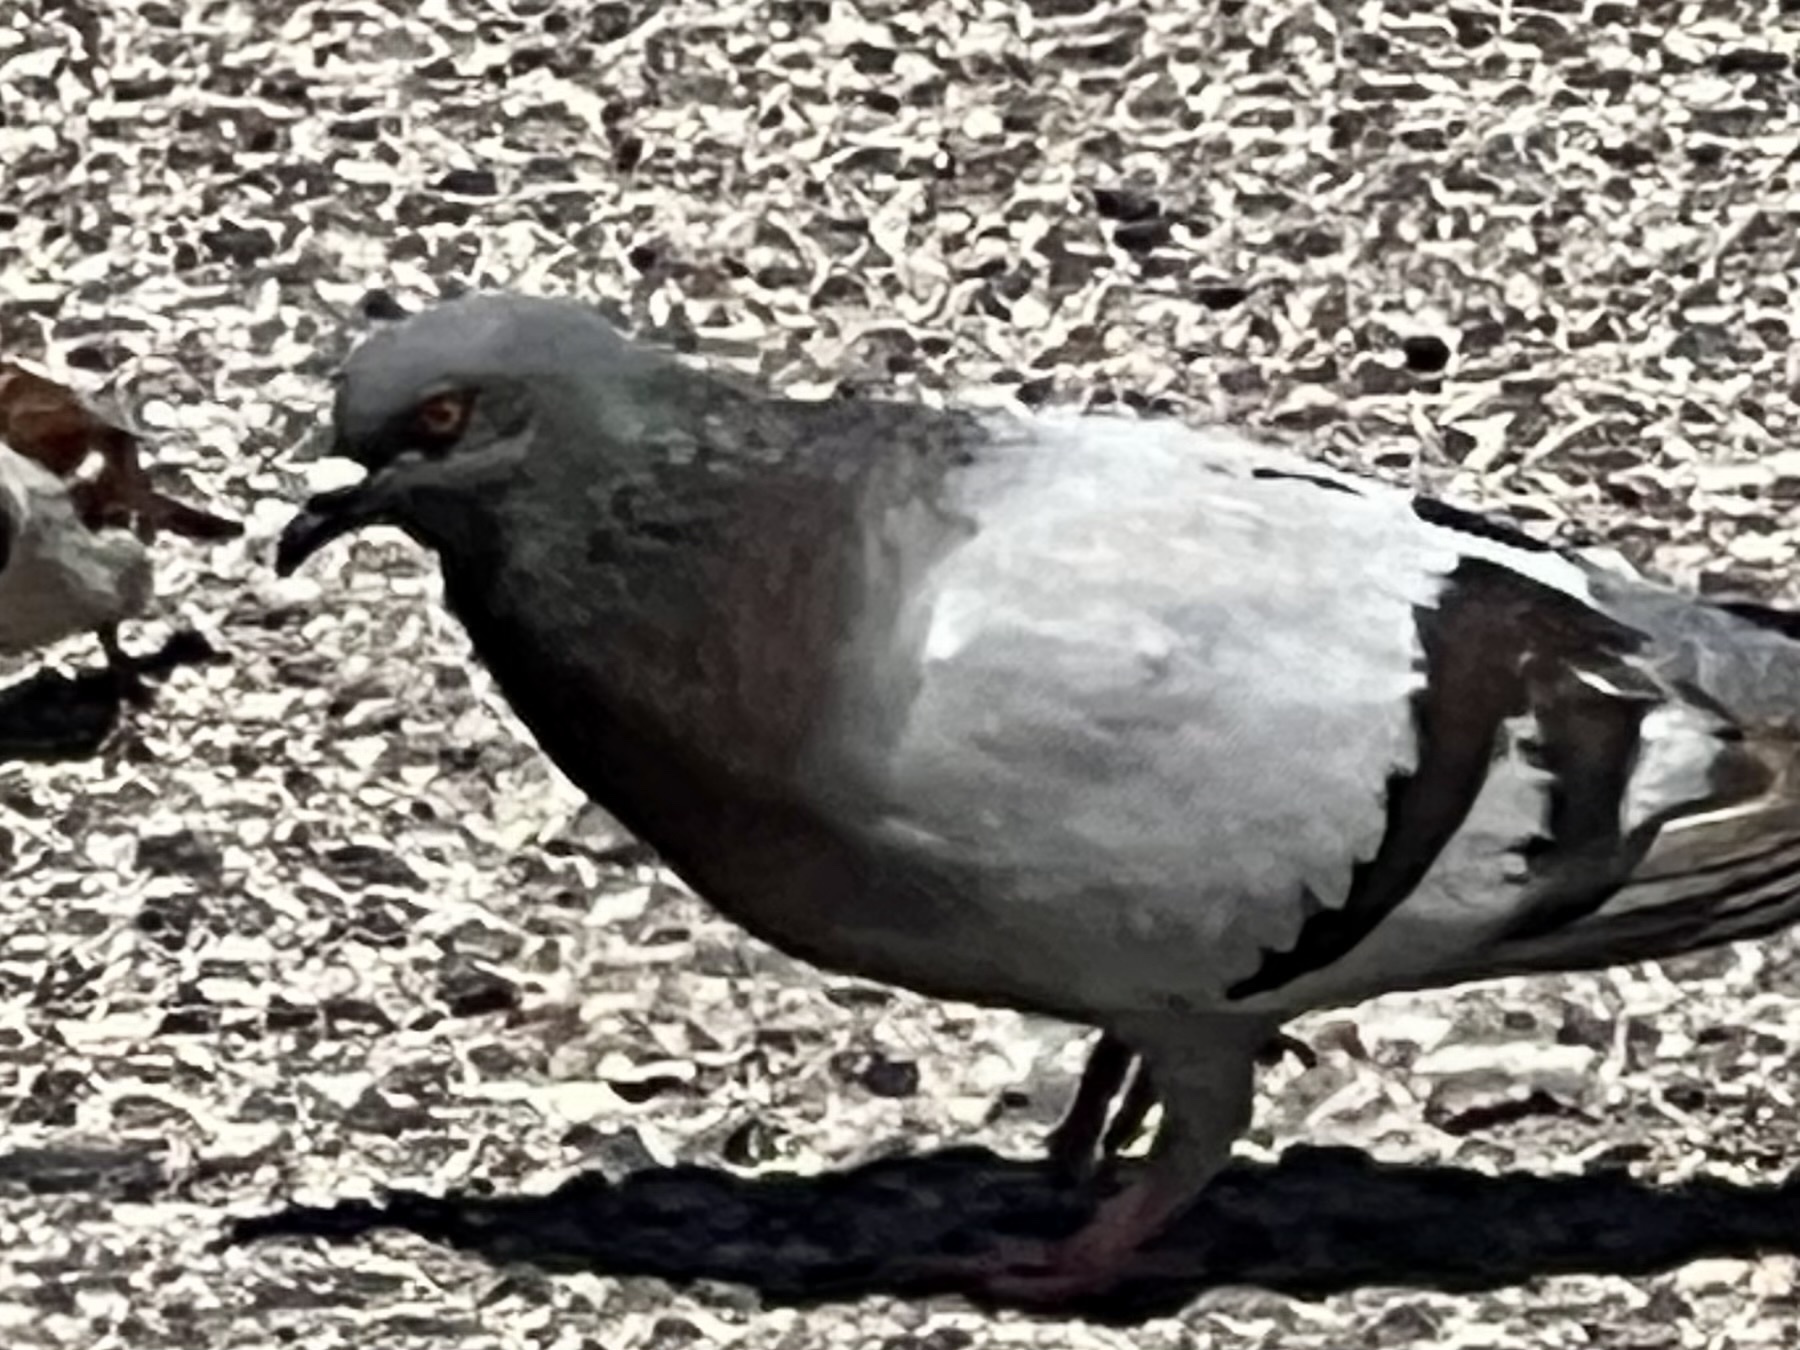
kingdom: Animalia
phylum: Chordata
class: Aves
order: Columbiformes
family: Columbidae
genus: Columba
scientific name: Columba livia
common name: Rock pigeon
